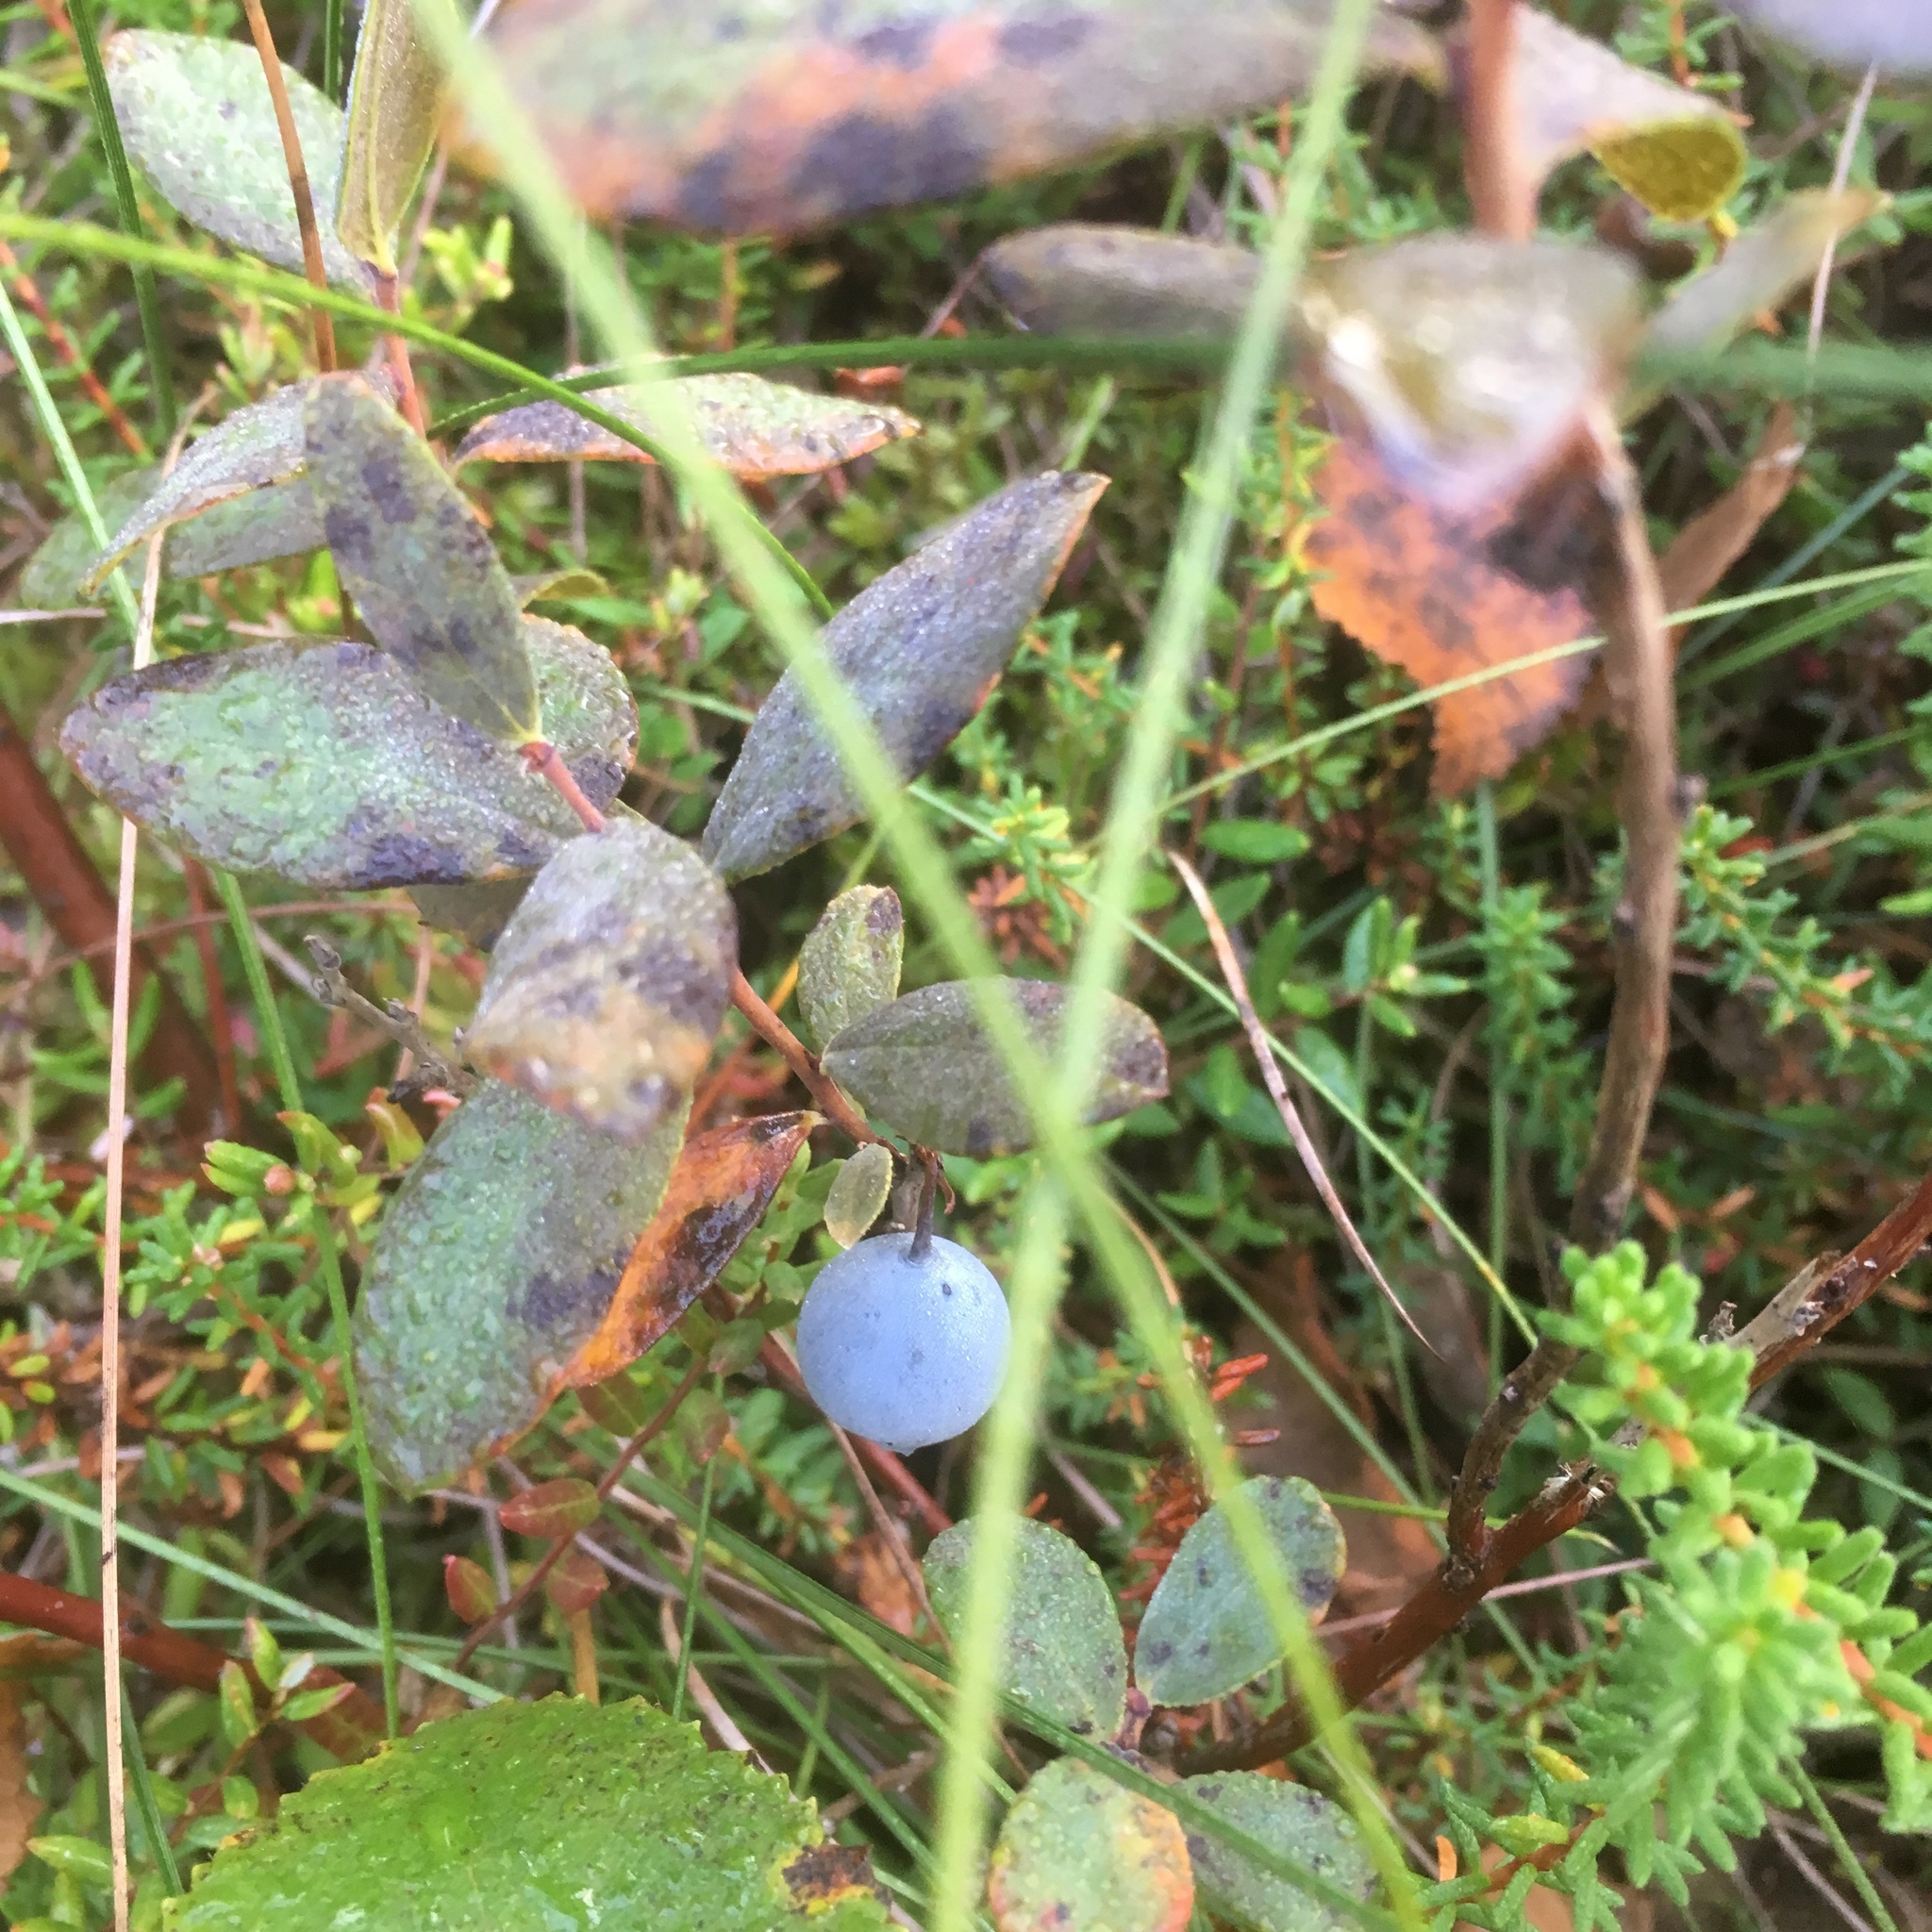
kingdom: Plantae
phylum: Tracheophyta
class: Magnoliopsida
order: Ericales
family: Ericaceae
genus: Vaccinium
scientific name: Vaccinium uliginosum
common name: Bog bilberry
